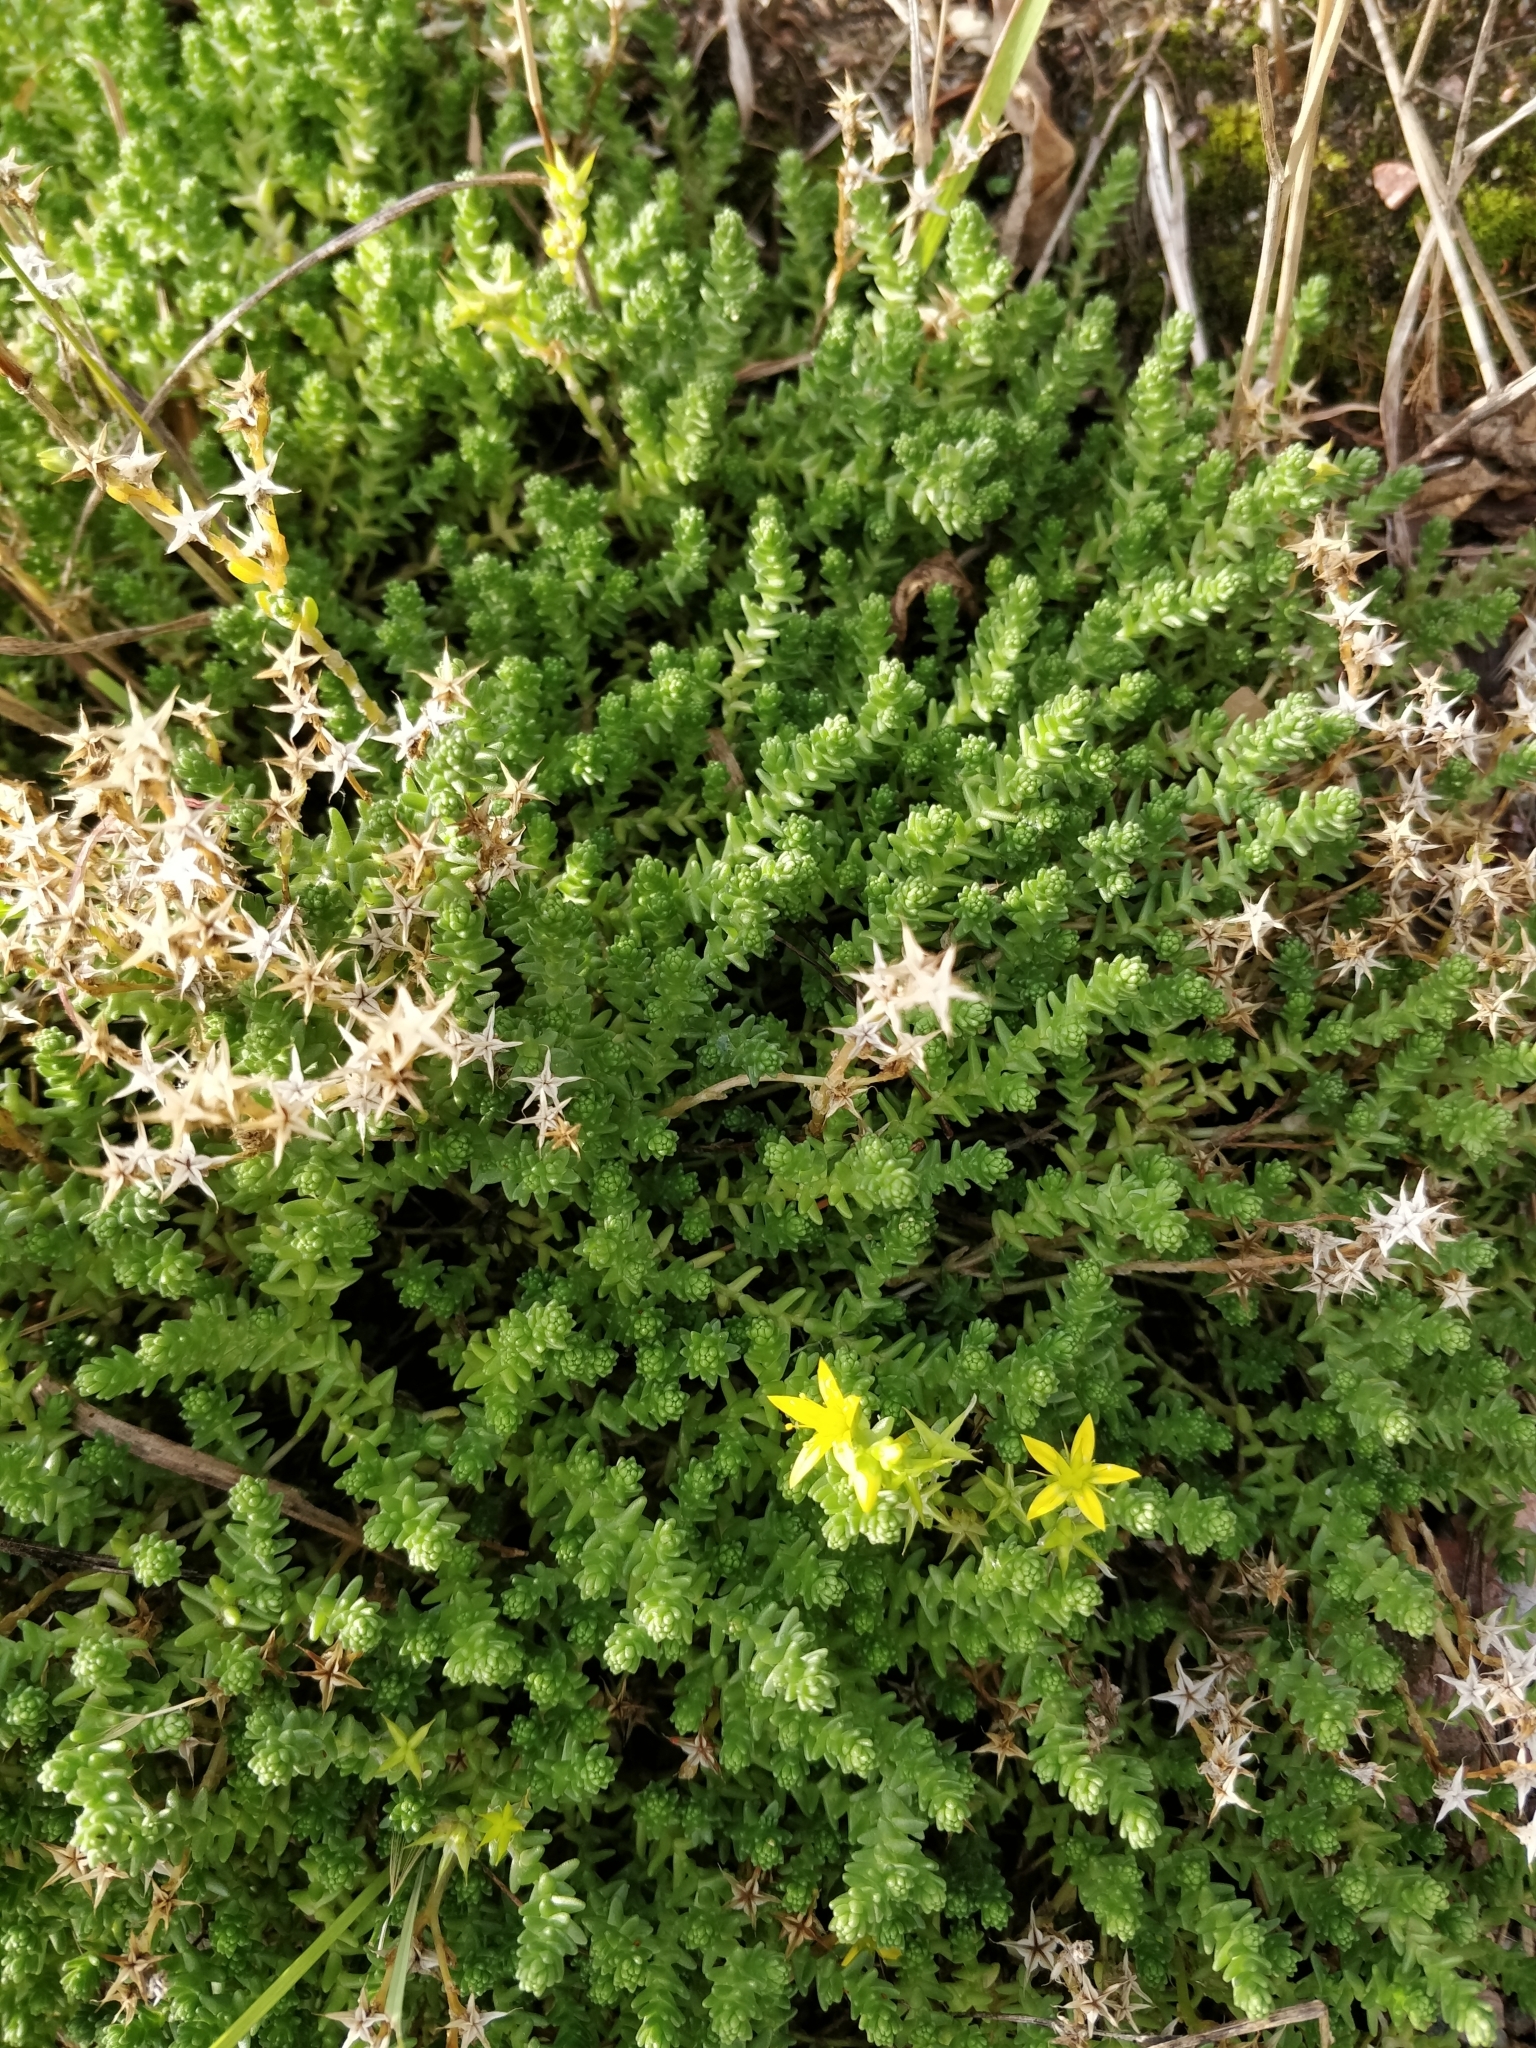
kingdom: Plantae
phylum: Tracheophyta
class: Magnoliopsida
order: Saxifragales
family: Crassulaceae
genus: Sedum
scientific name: Sedum acre
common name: Biting stonecrop
